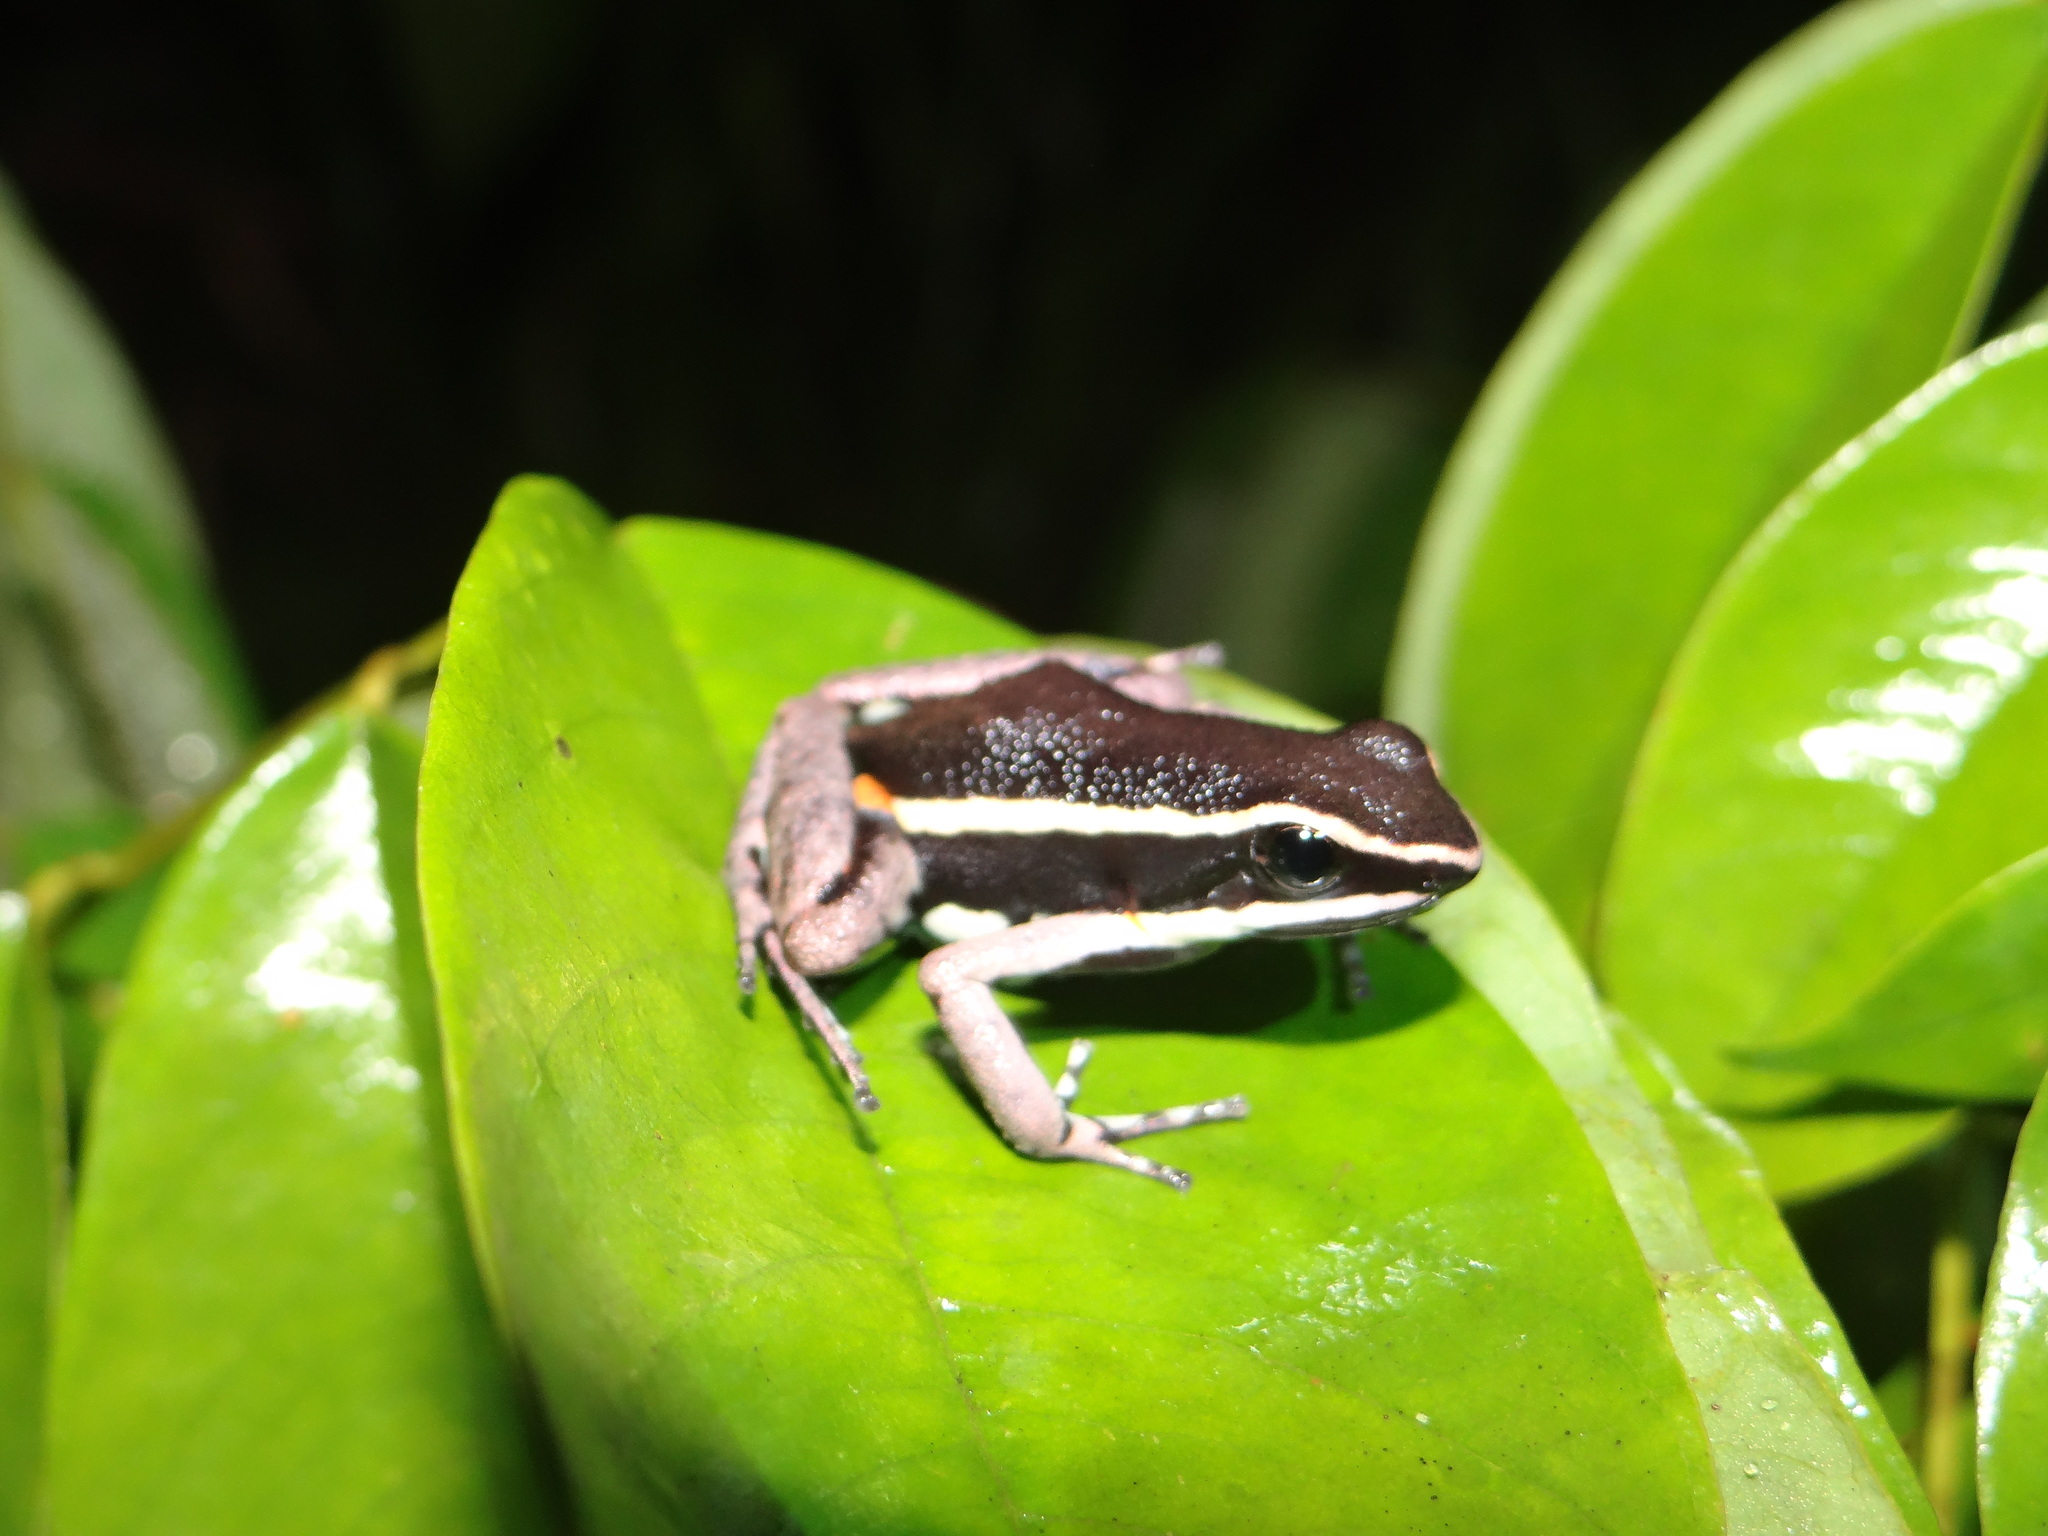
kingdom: Animalia
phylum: Chordata
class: Amphibia
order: Anura
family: Dendrobatidae
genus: Ameerega
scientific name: Ameerega picta
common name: Spot-legged poison frog
